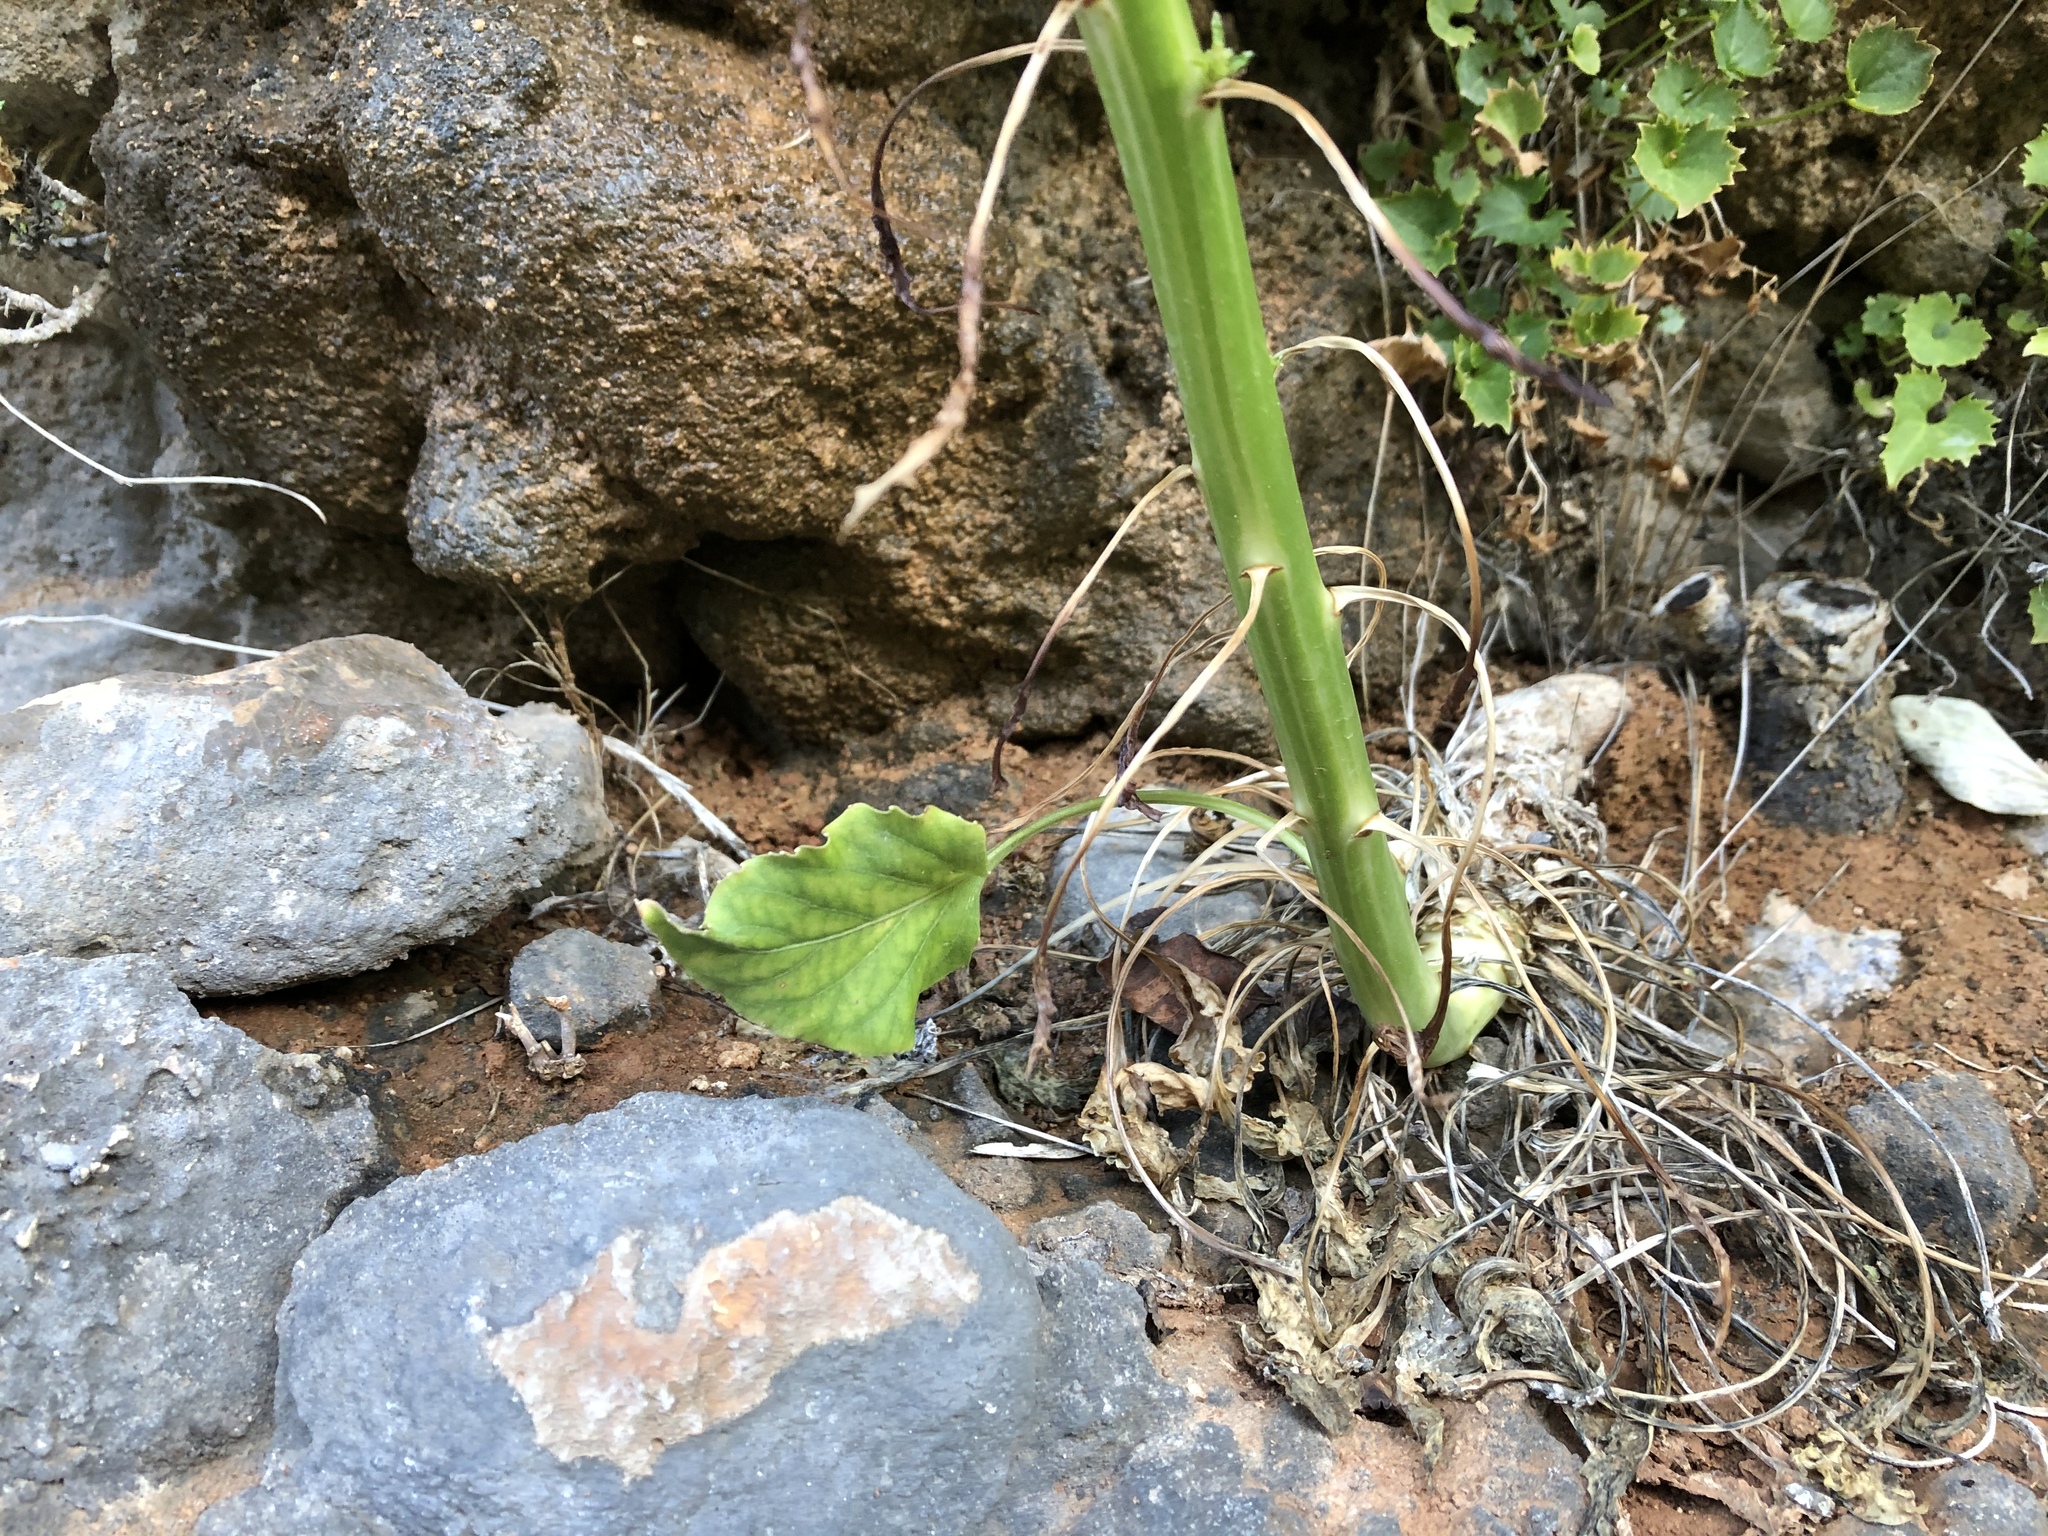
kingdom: Plantae
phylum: Tracheophyta
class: Magnoliopsida
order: Asterales
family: Campanulaceae
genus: Campanula
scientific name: Campanula pyramidalis
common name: Chimney bellflower
